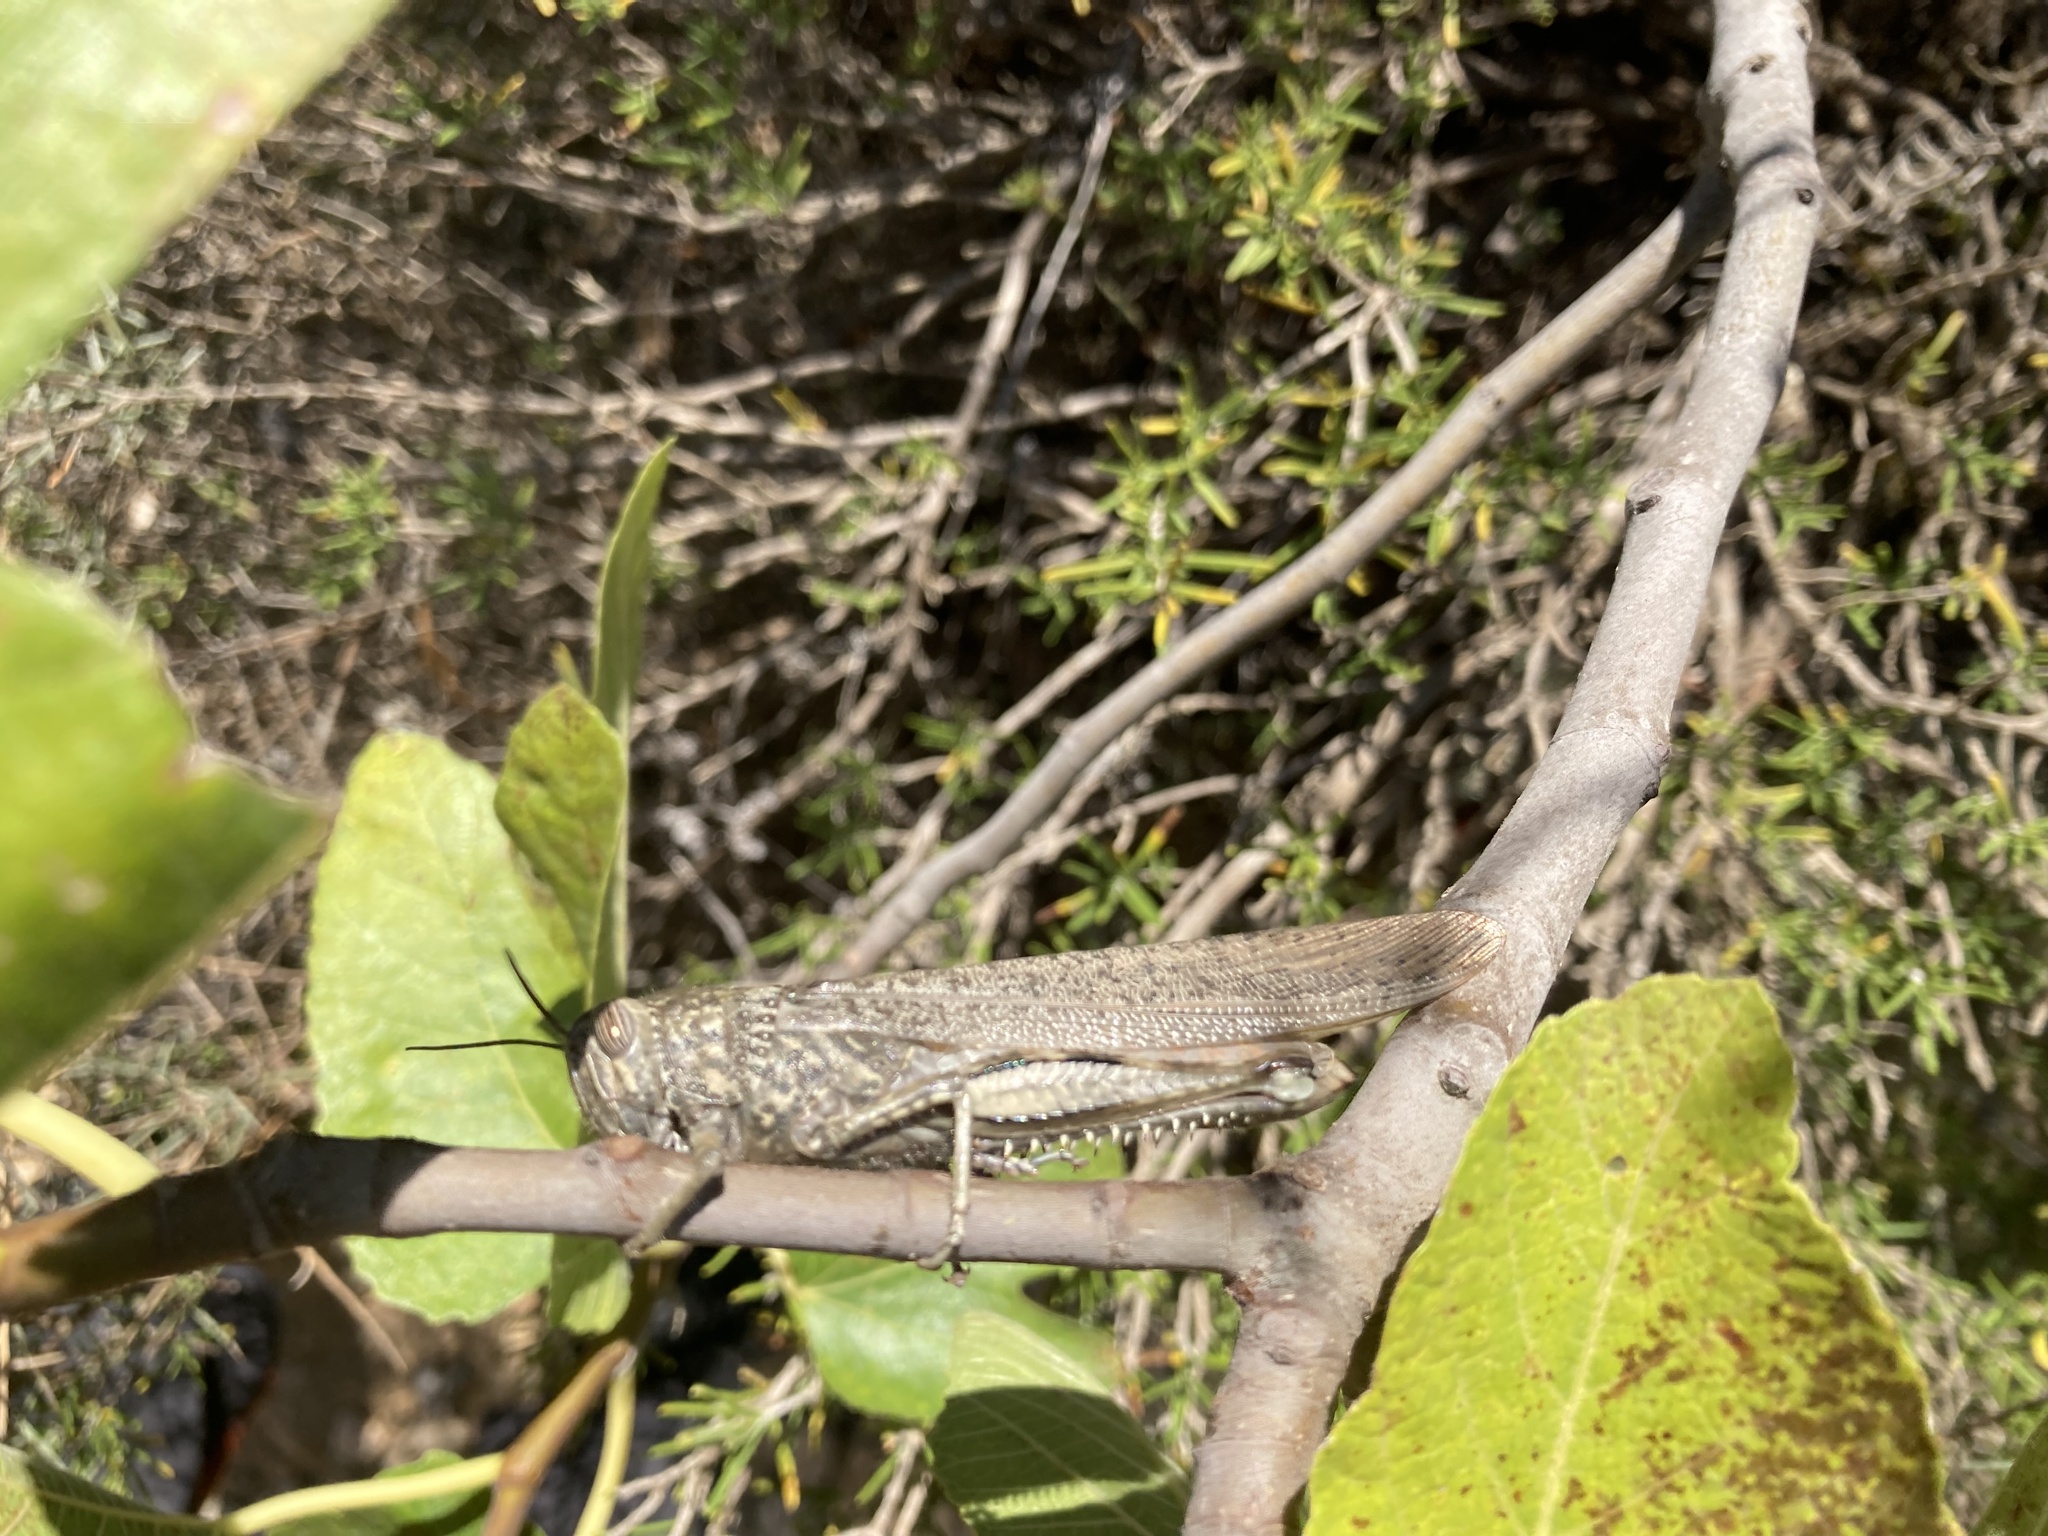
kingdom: Animalia
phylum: Arthropoda
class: Insecta
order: Orthoptera
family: Acrididae
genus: Anacridium
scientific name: Anacridium aegyptium
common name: Egyptian grasshopper
